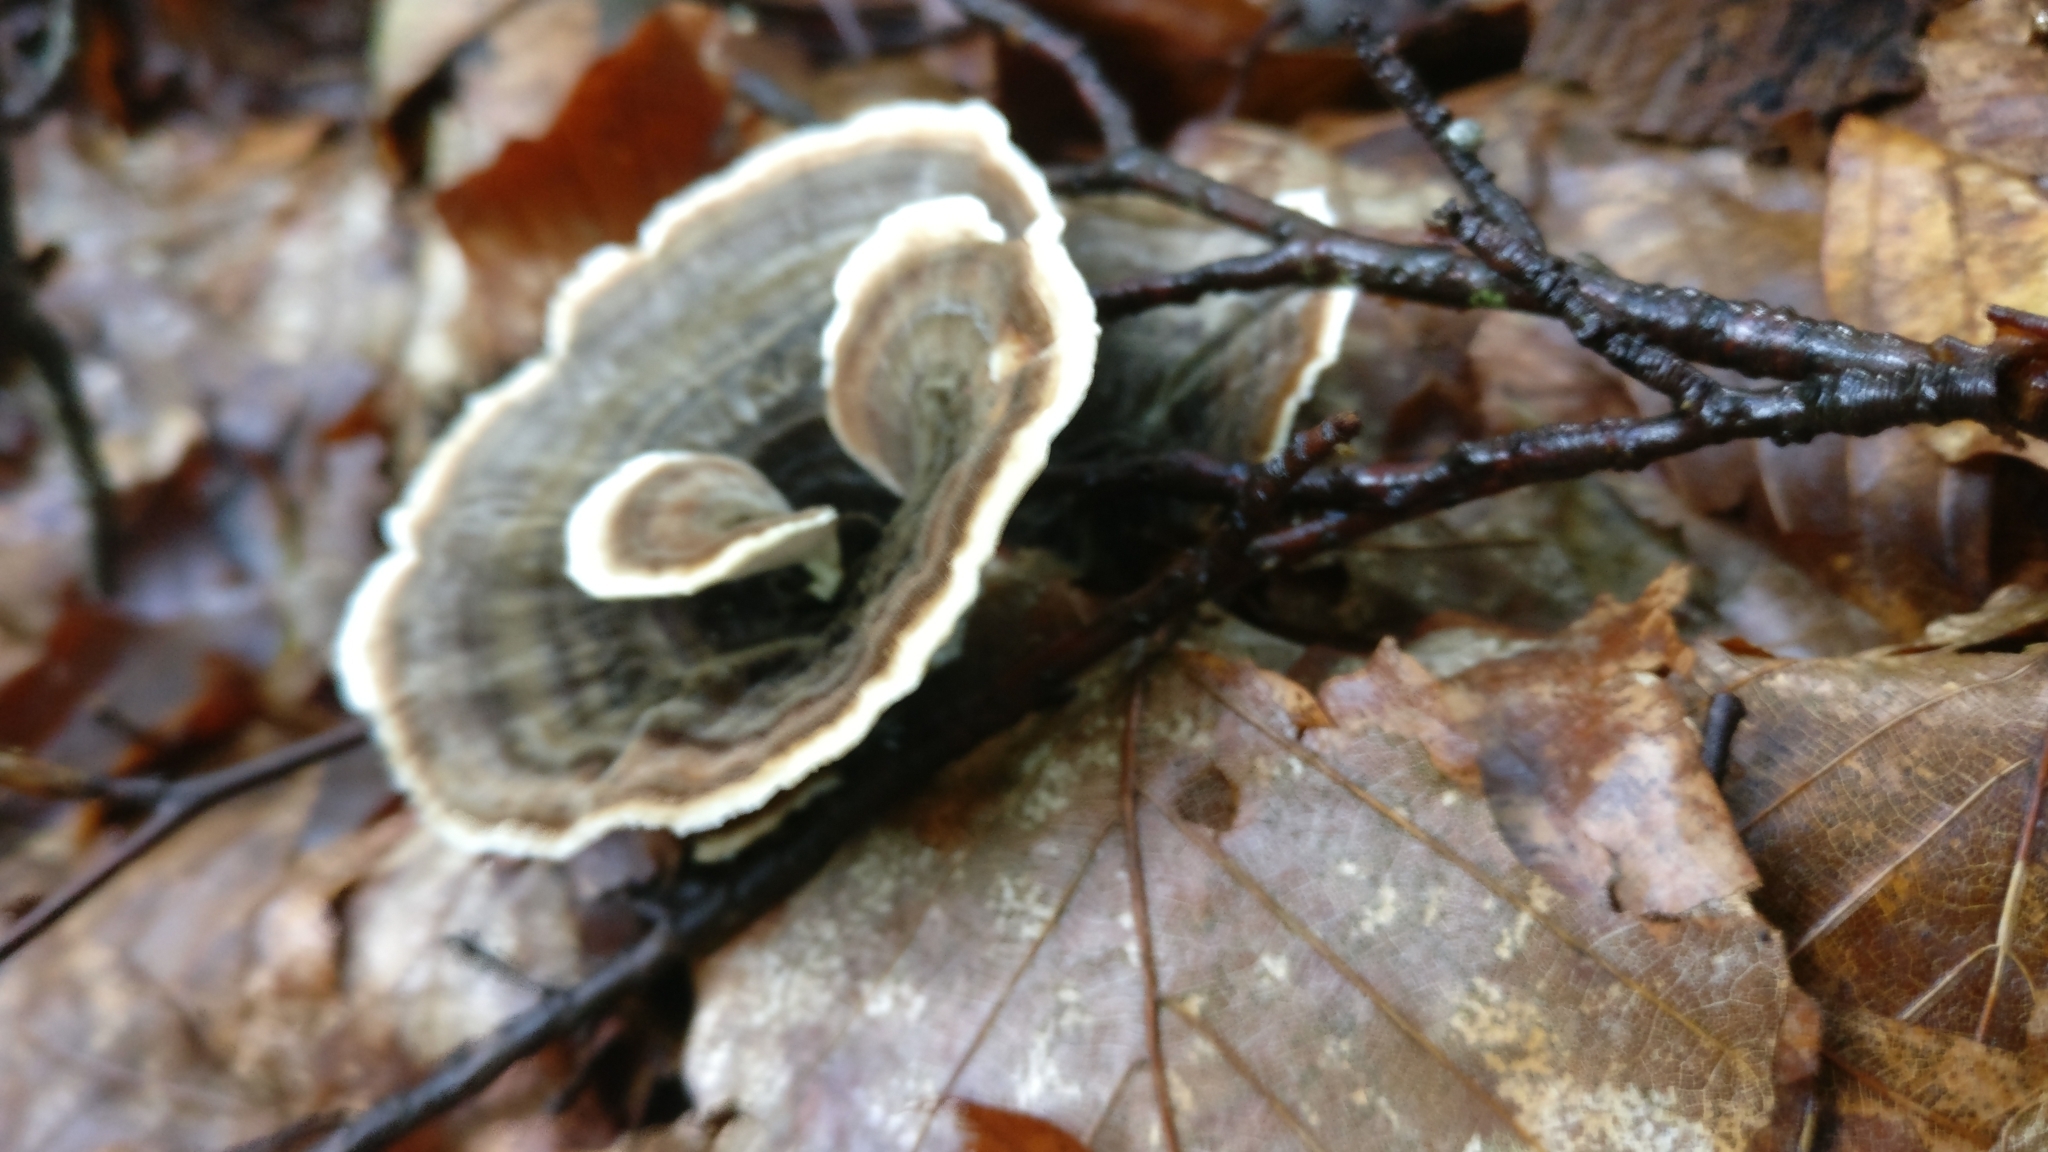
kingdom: Fungi
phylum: Basidiomycota
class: Agaricomycetes
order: Polyporales
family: Polyporaceae
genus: Trametes
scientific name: Trametes versicolor
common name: Turkeytail
